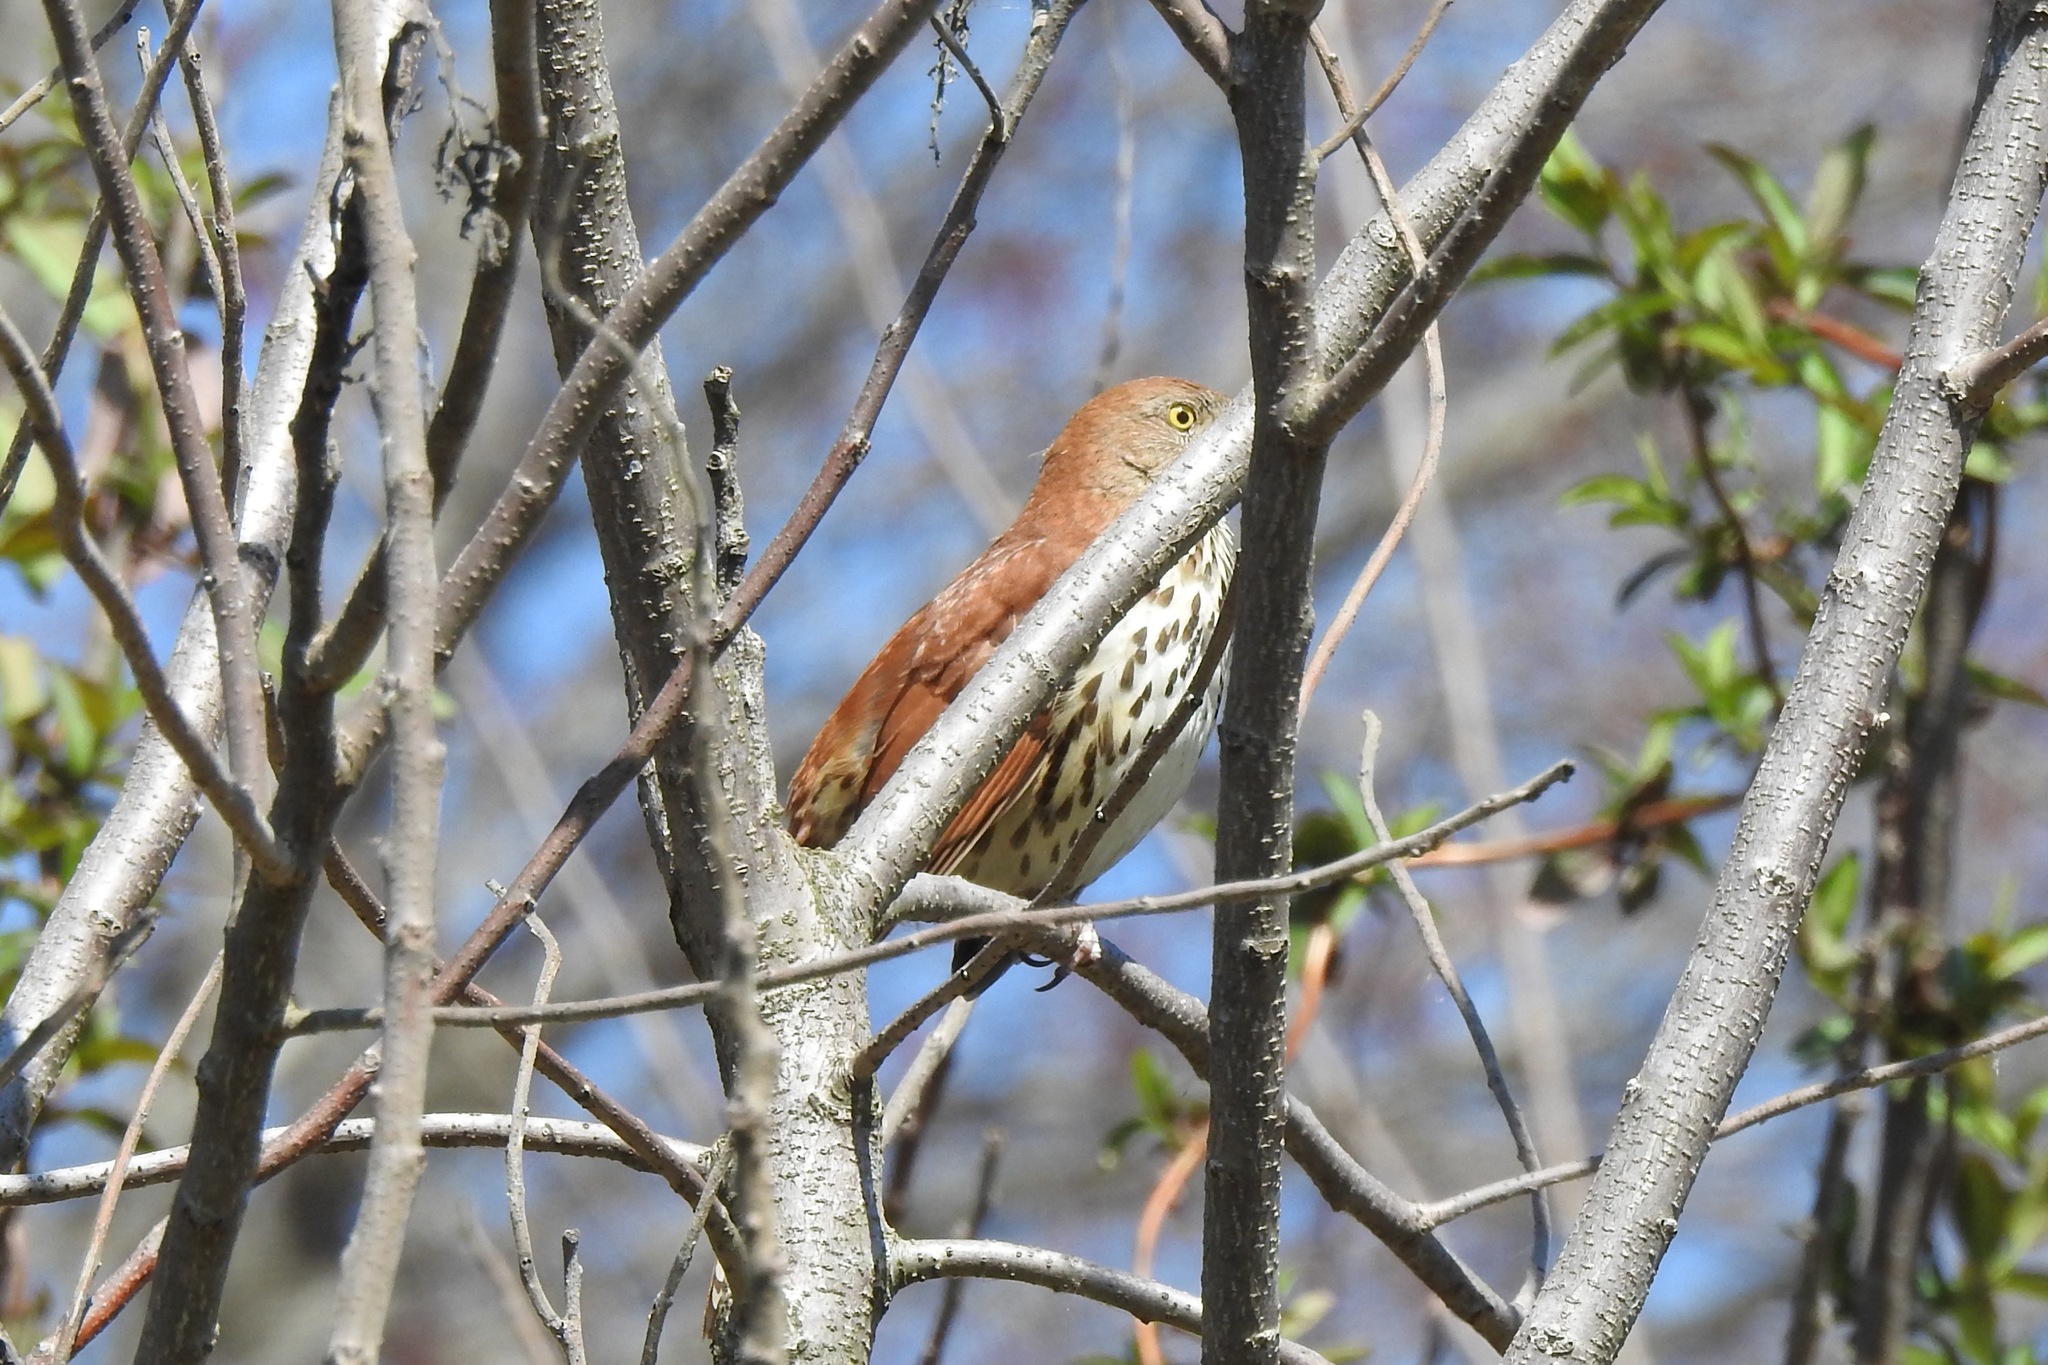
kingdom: Animalia
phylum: Chordata
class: Aves
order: Passeriformes
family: Mimidae
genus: Toxostoma
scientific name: Toxostoma rufum
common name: Brown thrasher
